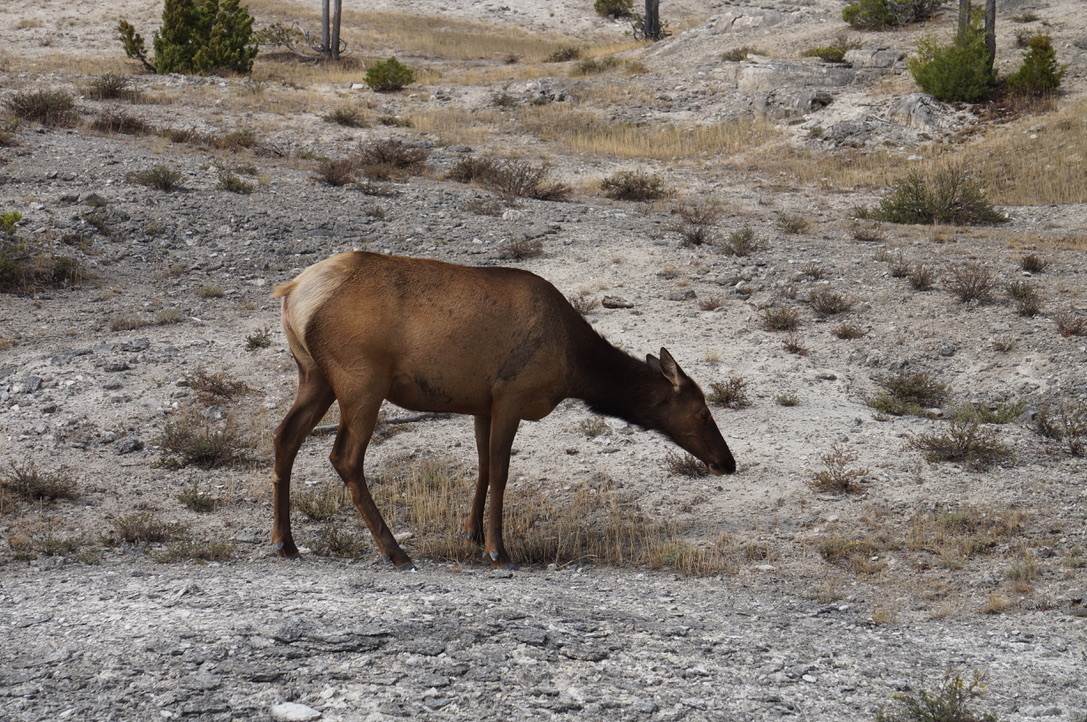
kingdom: Animalia
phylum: Chordata
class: Mammalia
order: Artiodactyla
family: Cervidae
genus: Cervus
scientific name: Cervus elaphus
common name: Red deer
